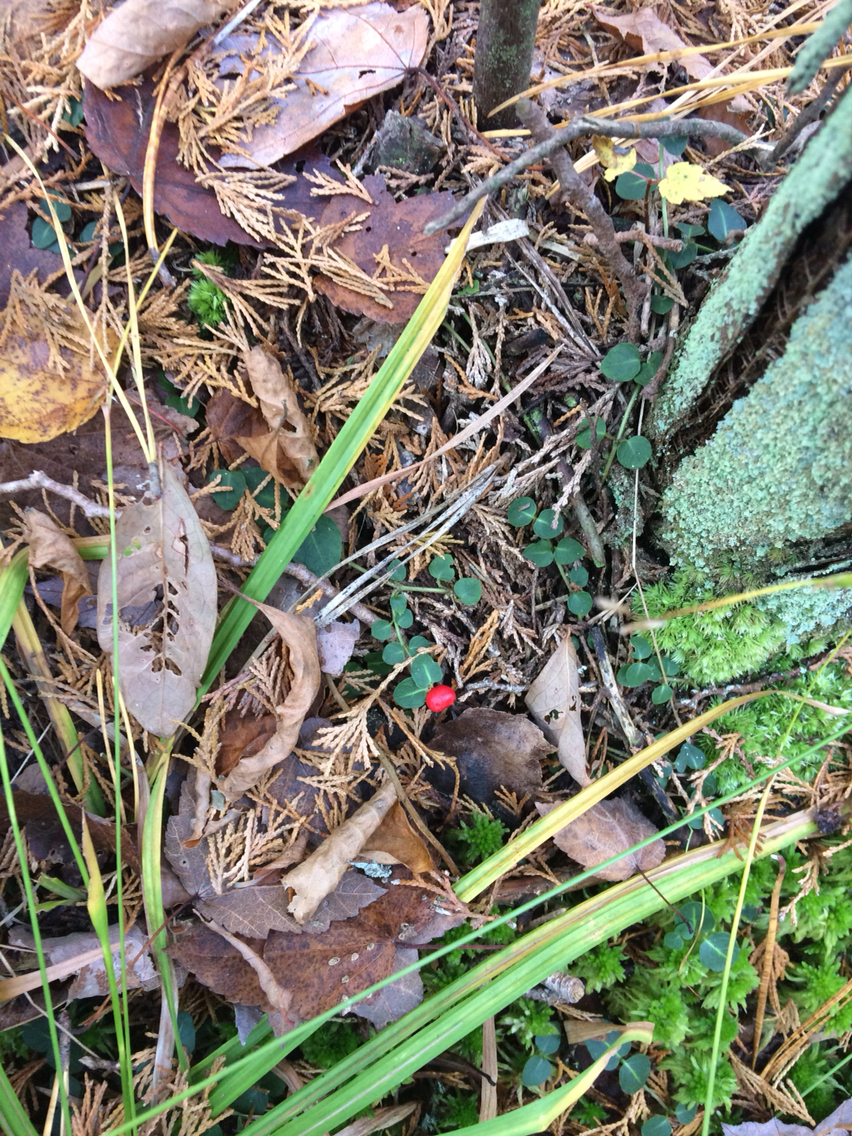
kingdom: Plantae
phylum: Tracheophyta
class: Magnoliopsida
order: Gentianales
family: Rubiaceae
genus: Mitchella
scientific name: Mitchella repens
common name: Partridge-berry
